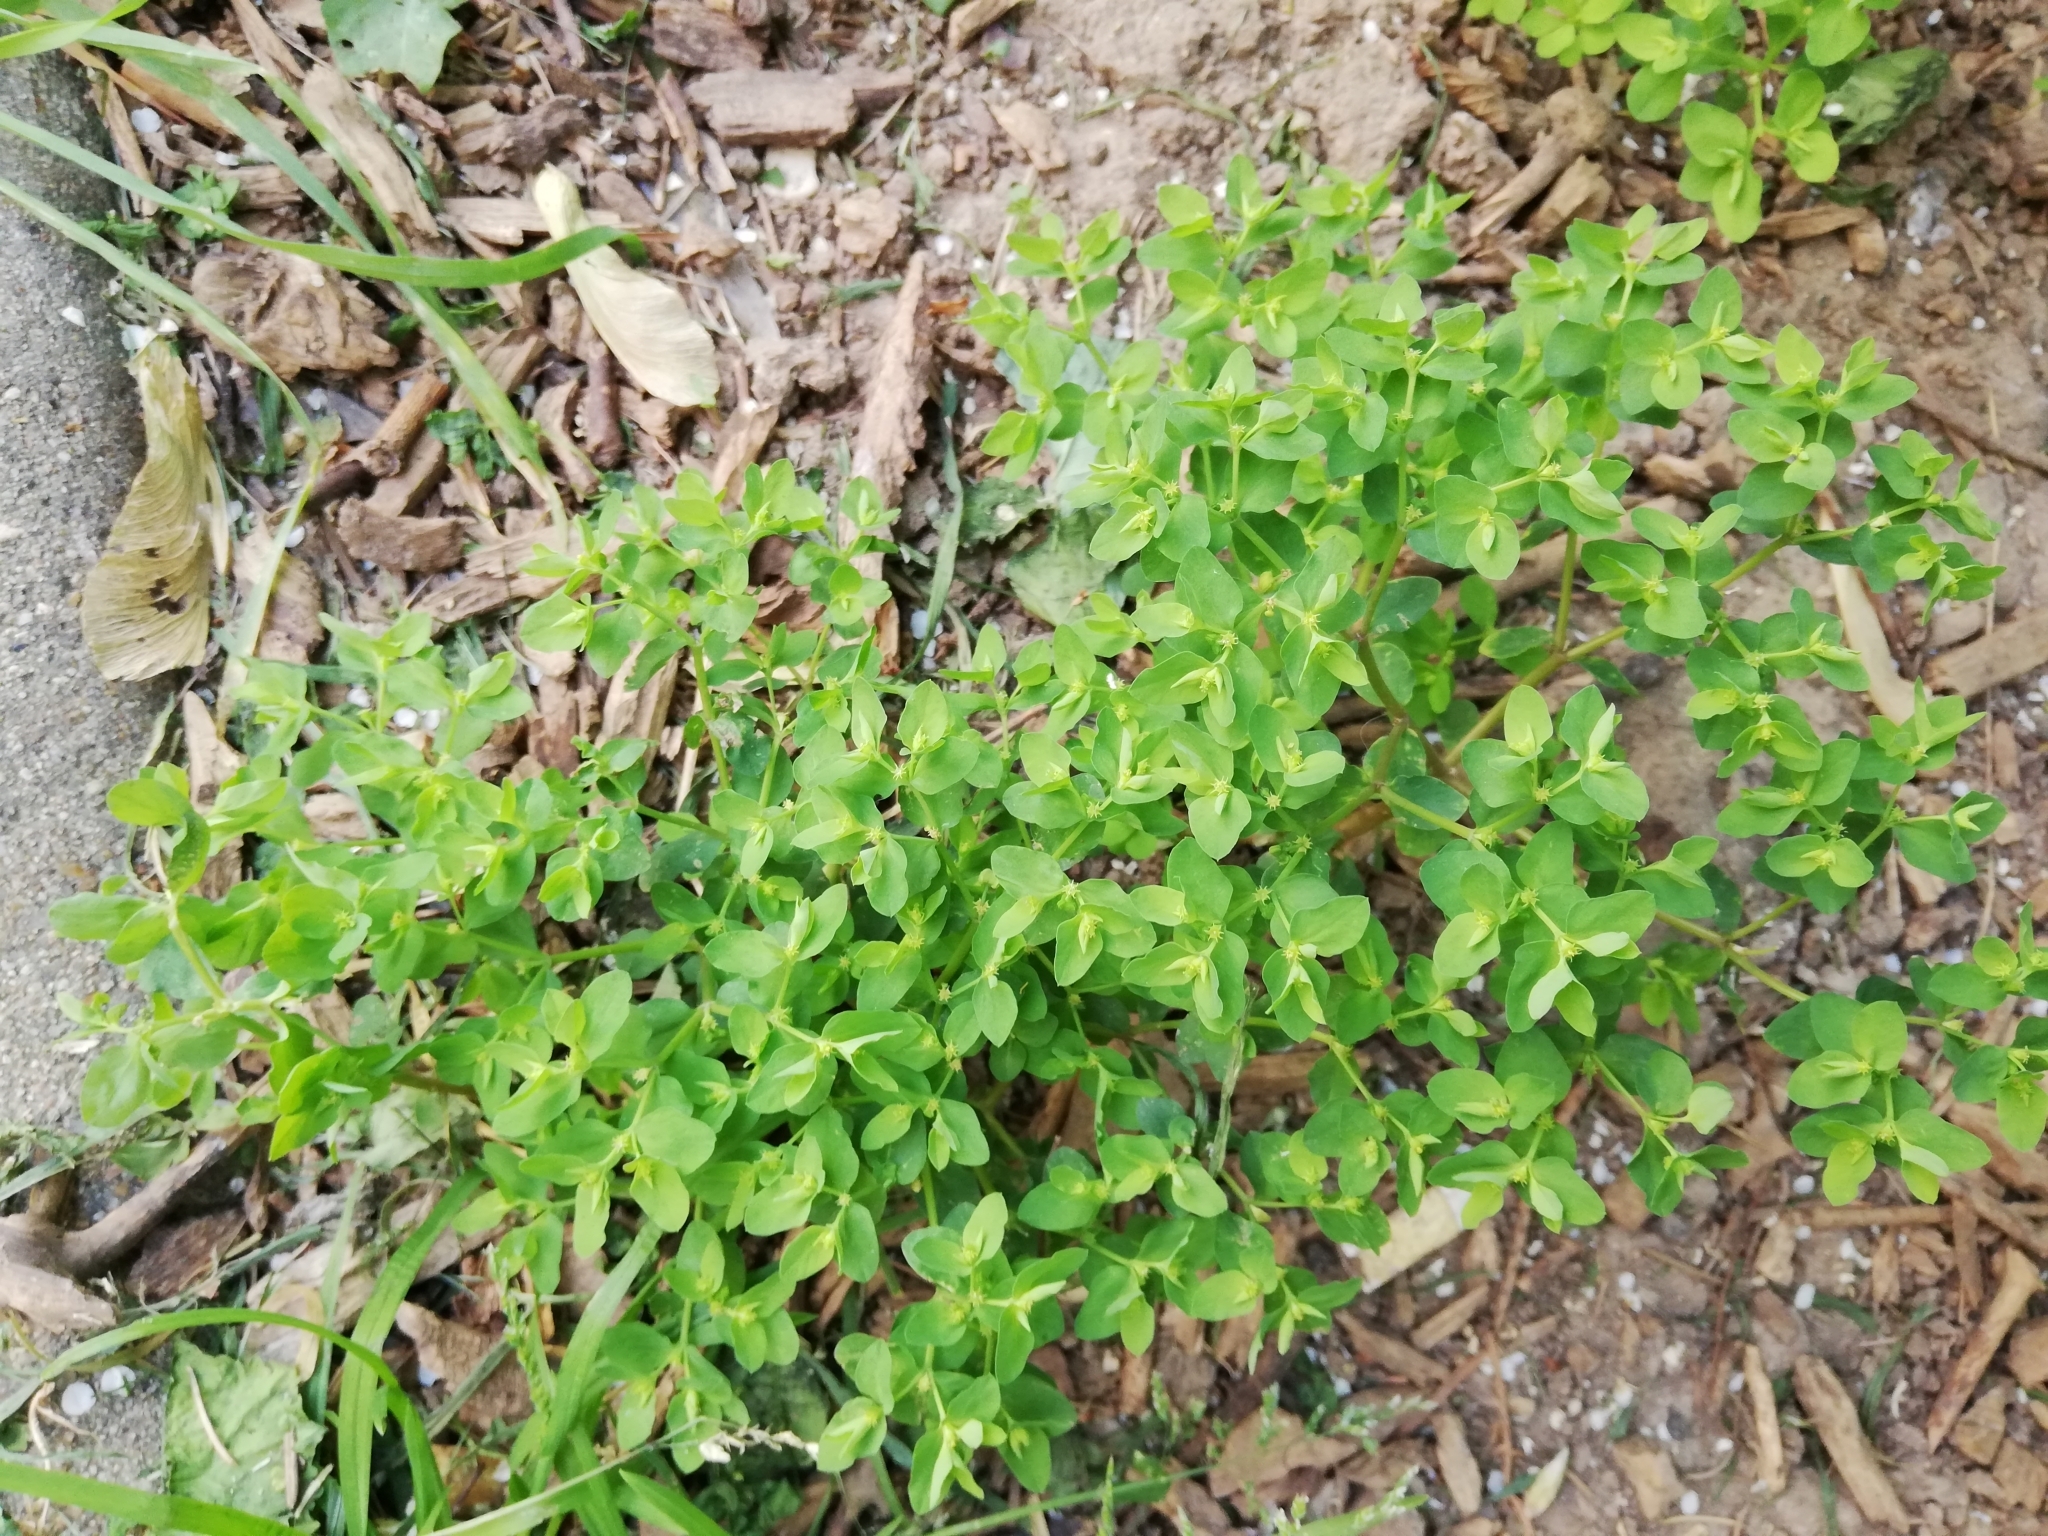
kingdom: Plantae
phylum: Tracheophyta
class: Magnoliopsida
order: Malpighiales
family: Euphorbiaceae
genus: Euphorbia
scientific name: Euphorbia peplus
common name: Petty spurge
